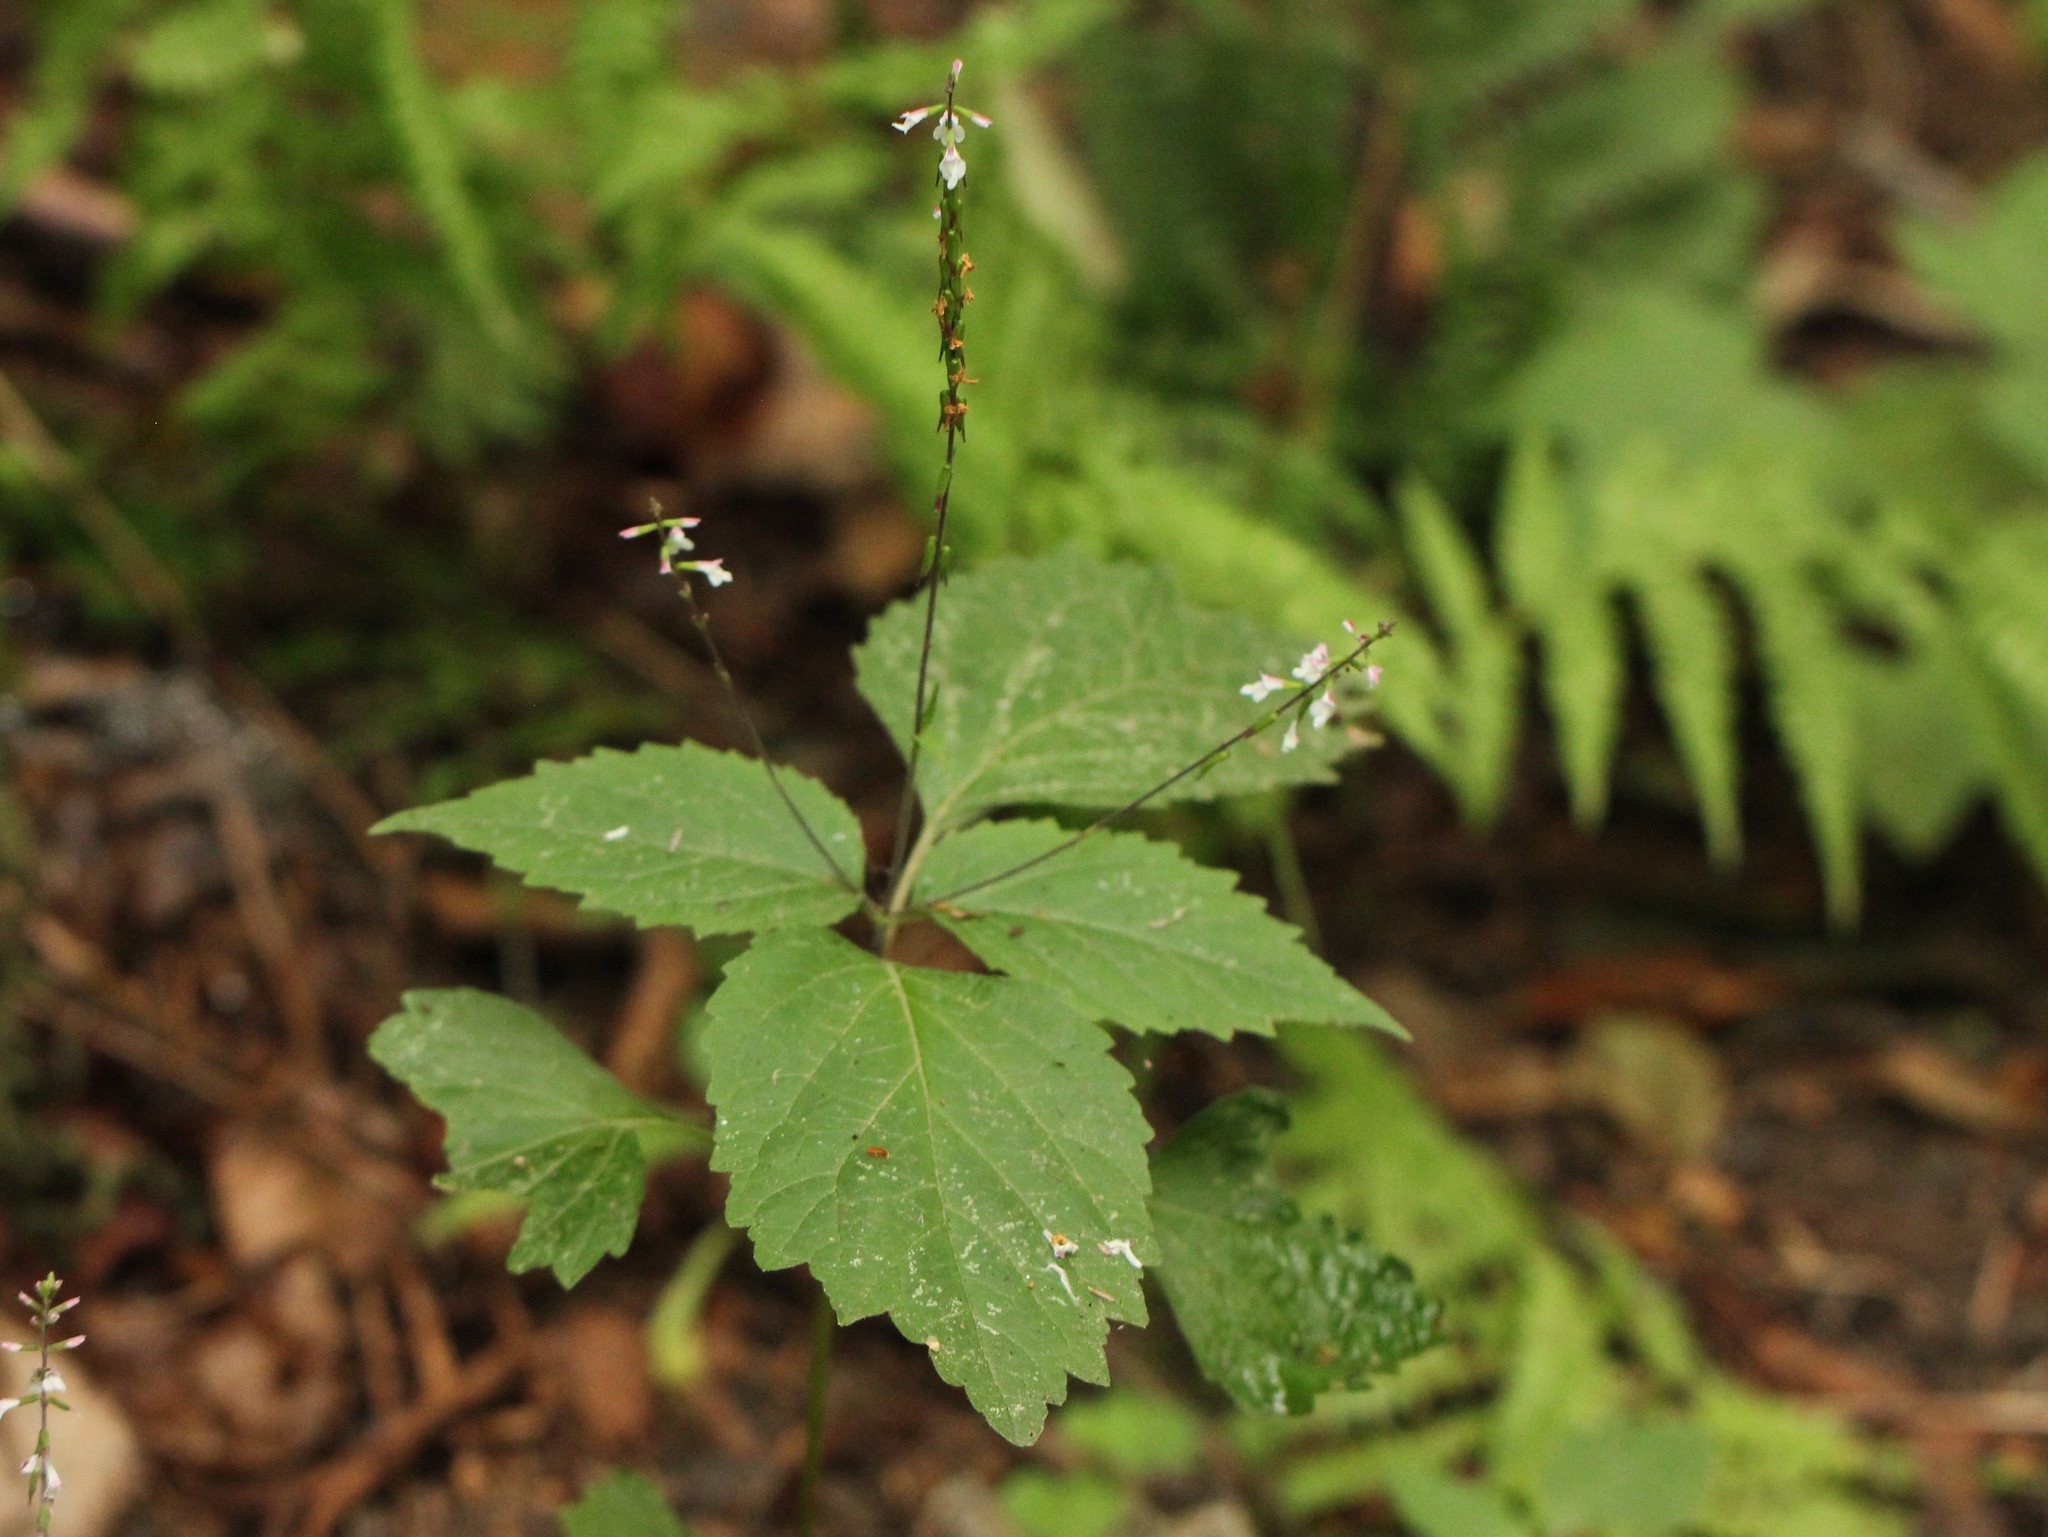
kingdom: Plantae
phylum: Tracheophyta
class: Magnoliopsida
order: Lamiales
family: Phrymaceae
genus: Phryma
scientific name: Phryma leptostachya
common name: American lopseed
